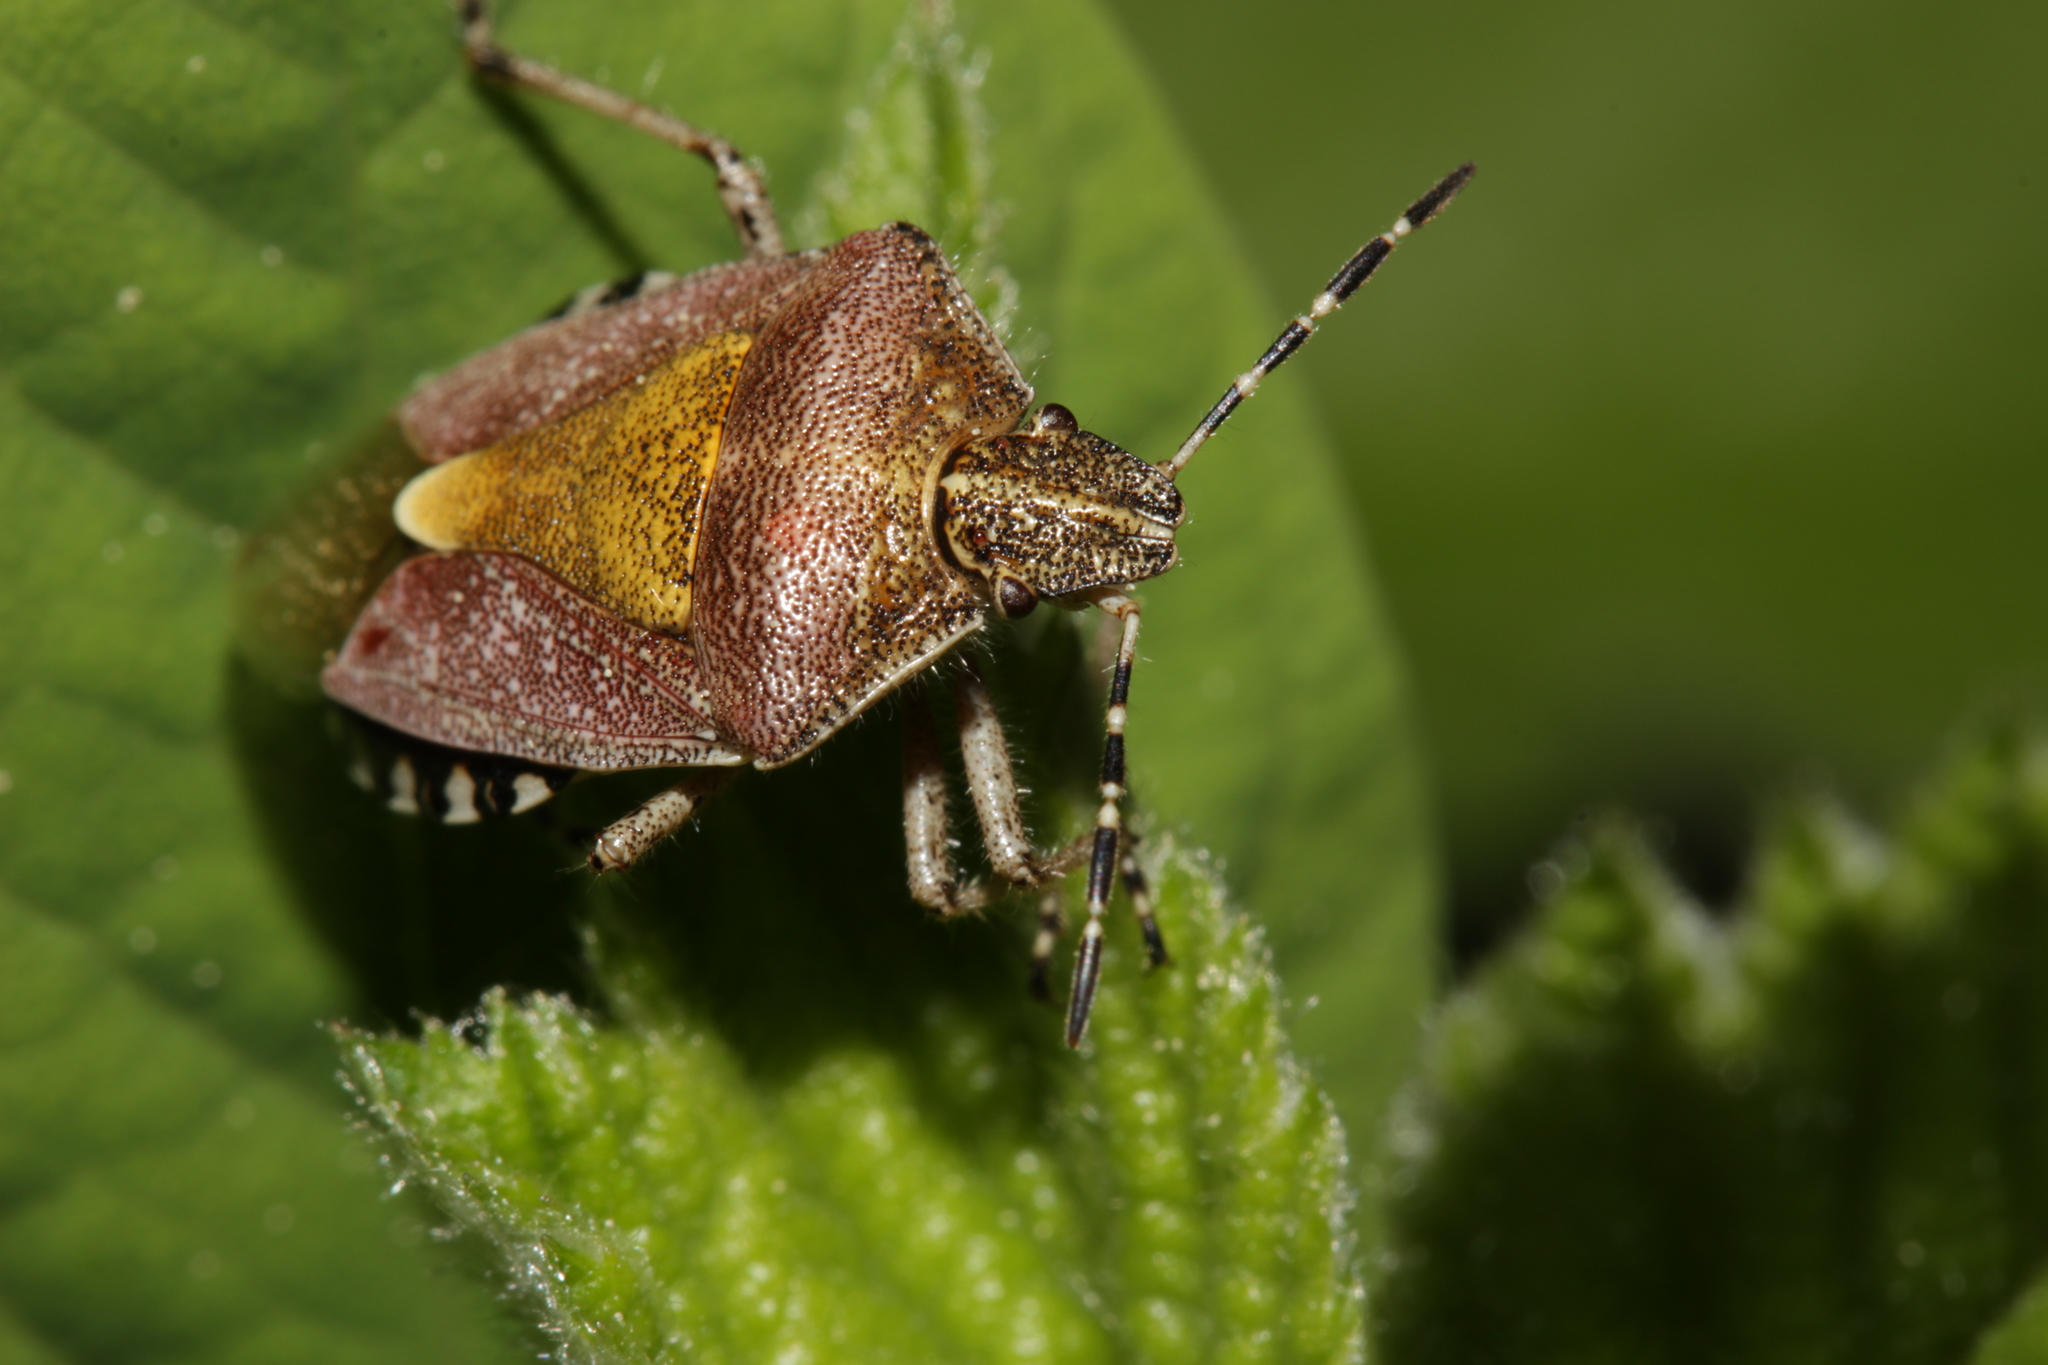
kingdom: Animalia
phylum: Arthropoda
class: Insecta
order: Hemiptera
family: Pentatomidae
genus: Dolycoris
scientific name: Dolycoris baccarum
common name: Sloe bug
